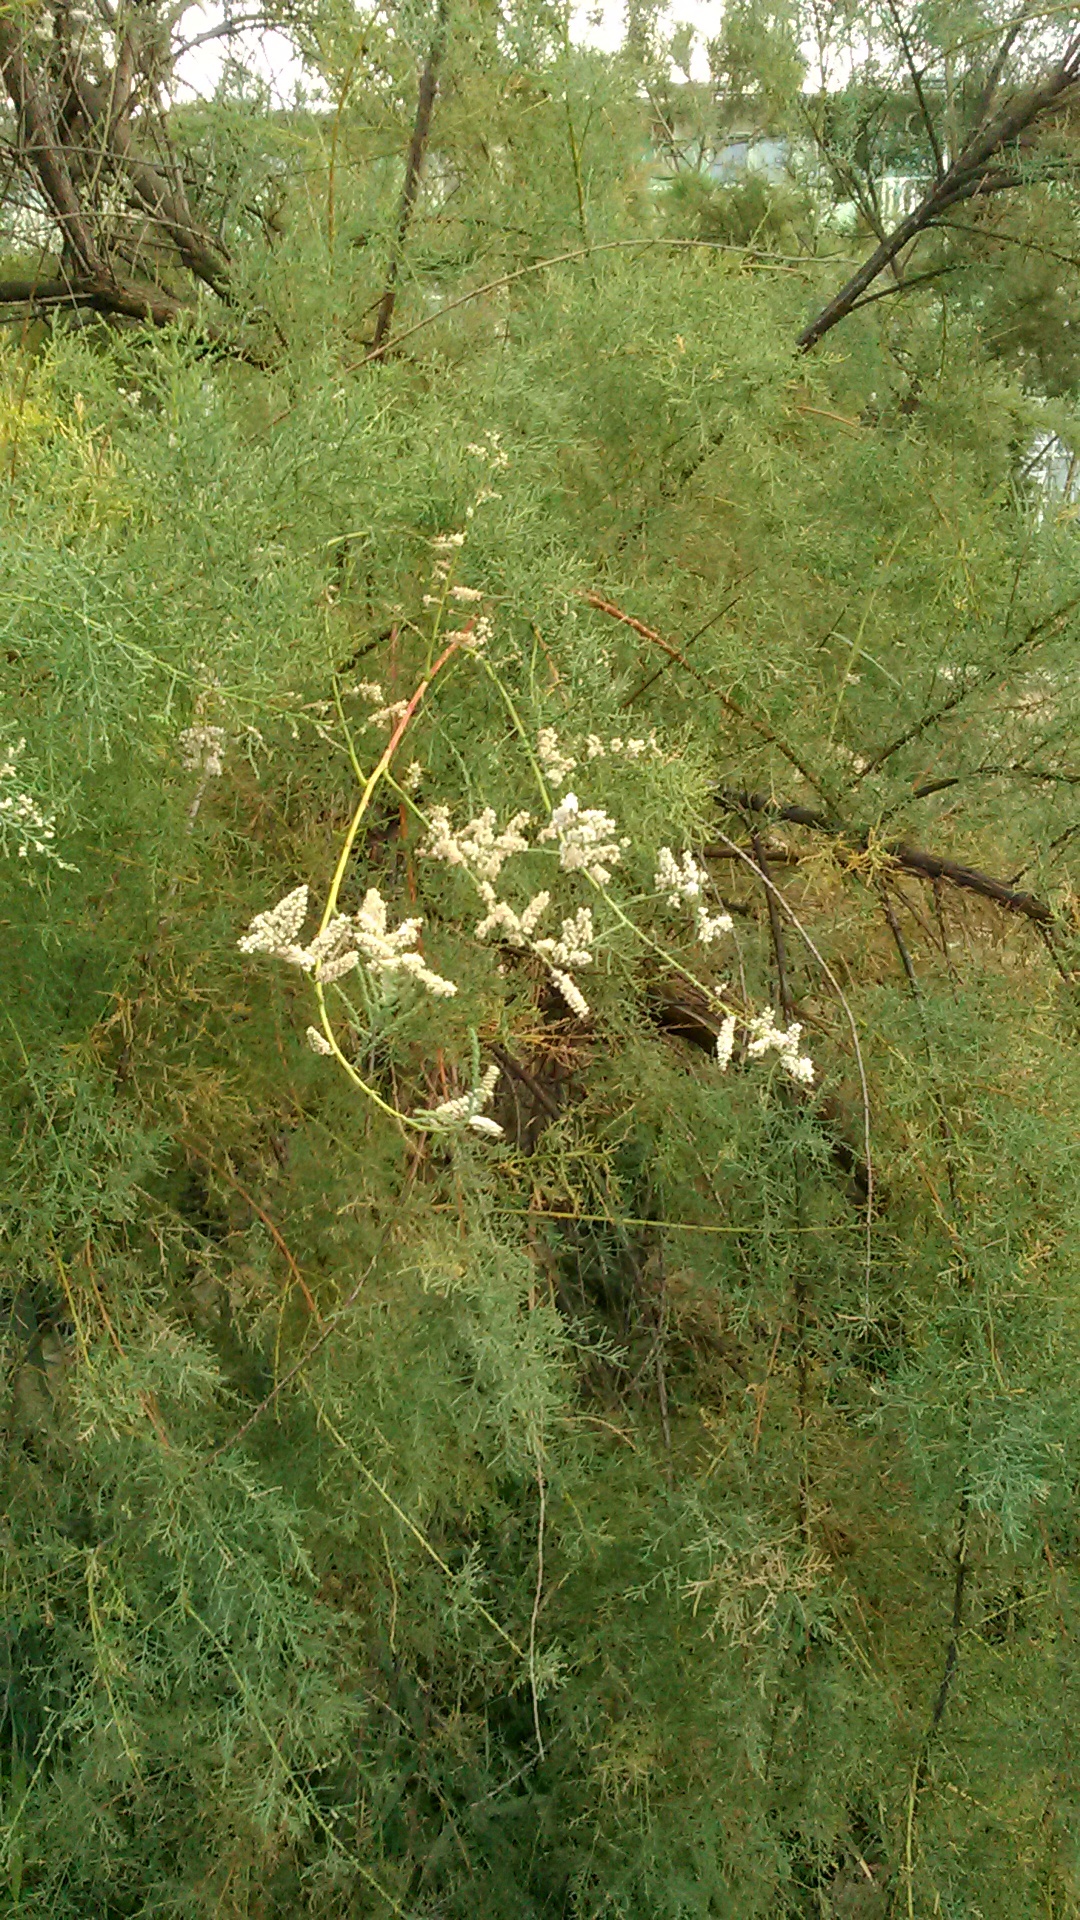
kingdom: Plantae
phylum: Tracheophyta
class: Magnoliopsida
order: Caryophyllales
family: Tamaricaceae
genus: Tamarix
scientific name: Tamarix ramosissima
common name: Pink tamarisk
